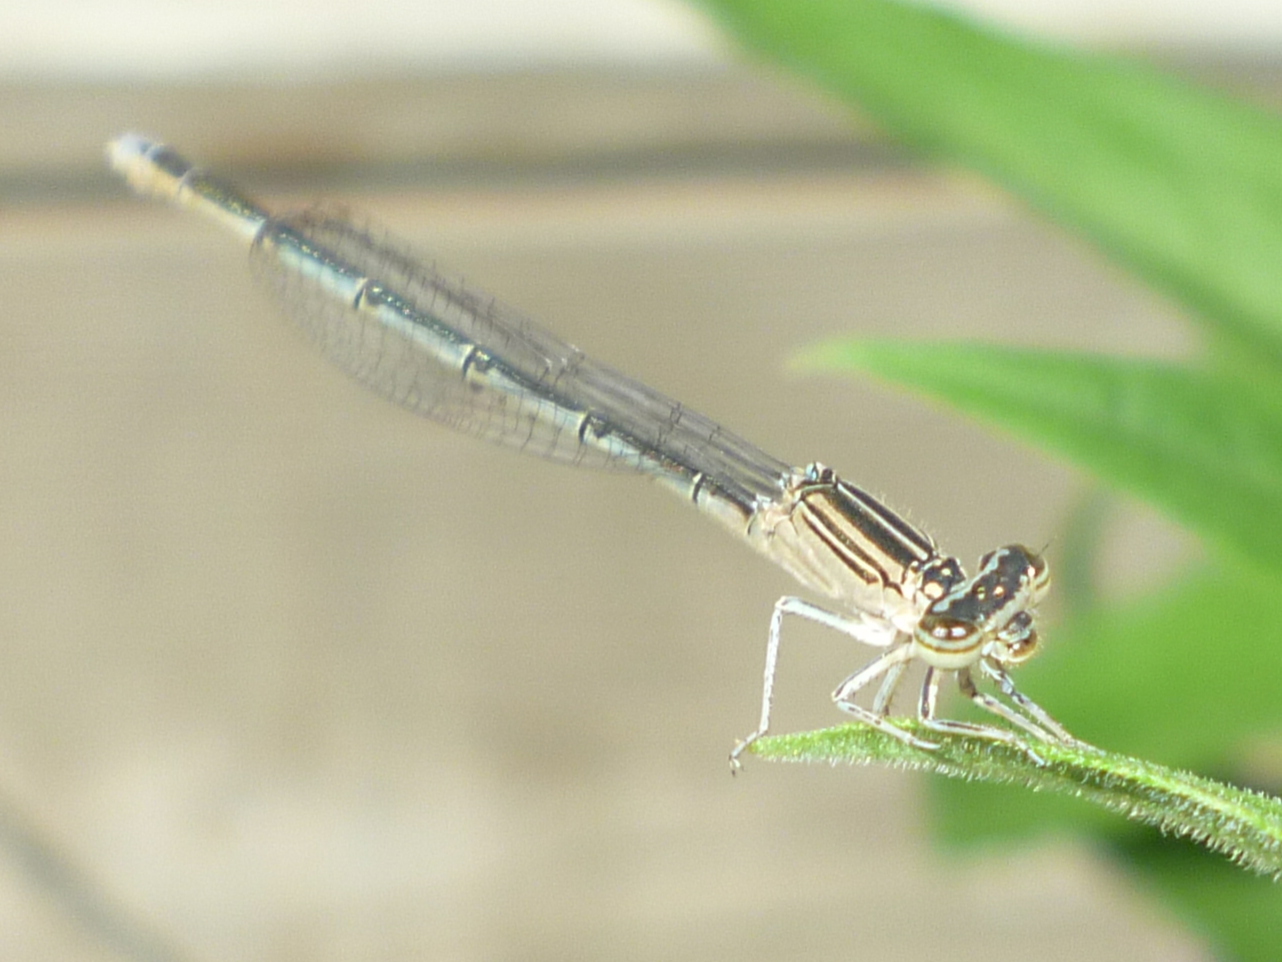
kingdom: Animalia
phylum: Arthropoda
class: Insecta
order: Odonata
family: Coenagrionidae
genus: Enallagma
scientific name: Enallagma basidens
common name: Double-striped bluet
